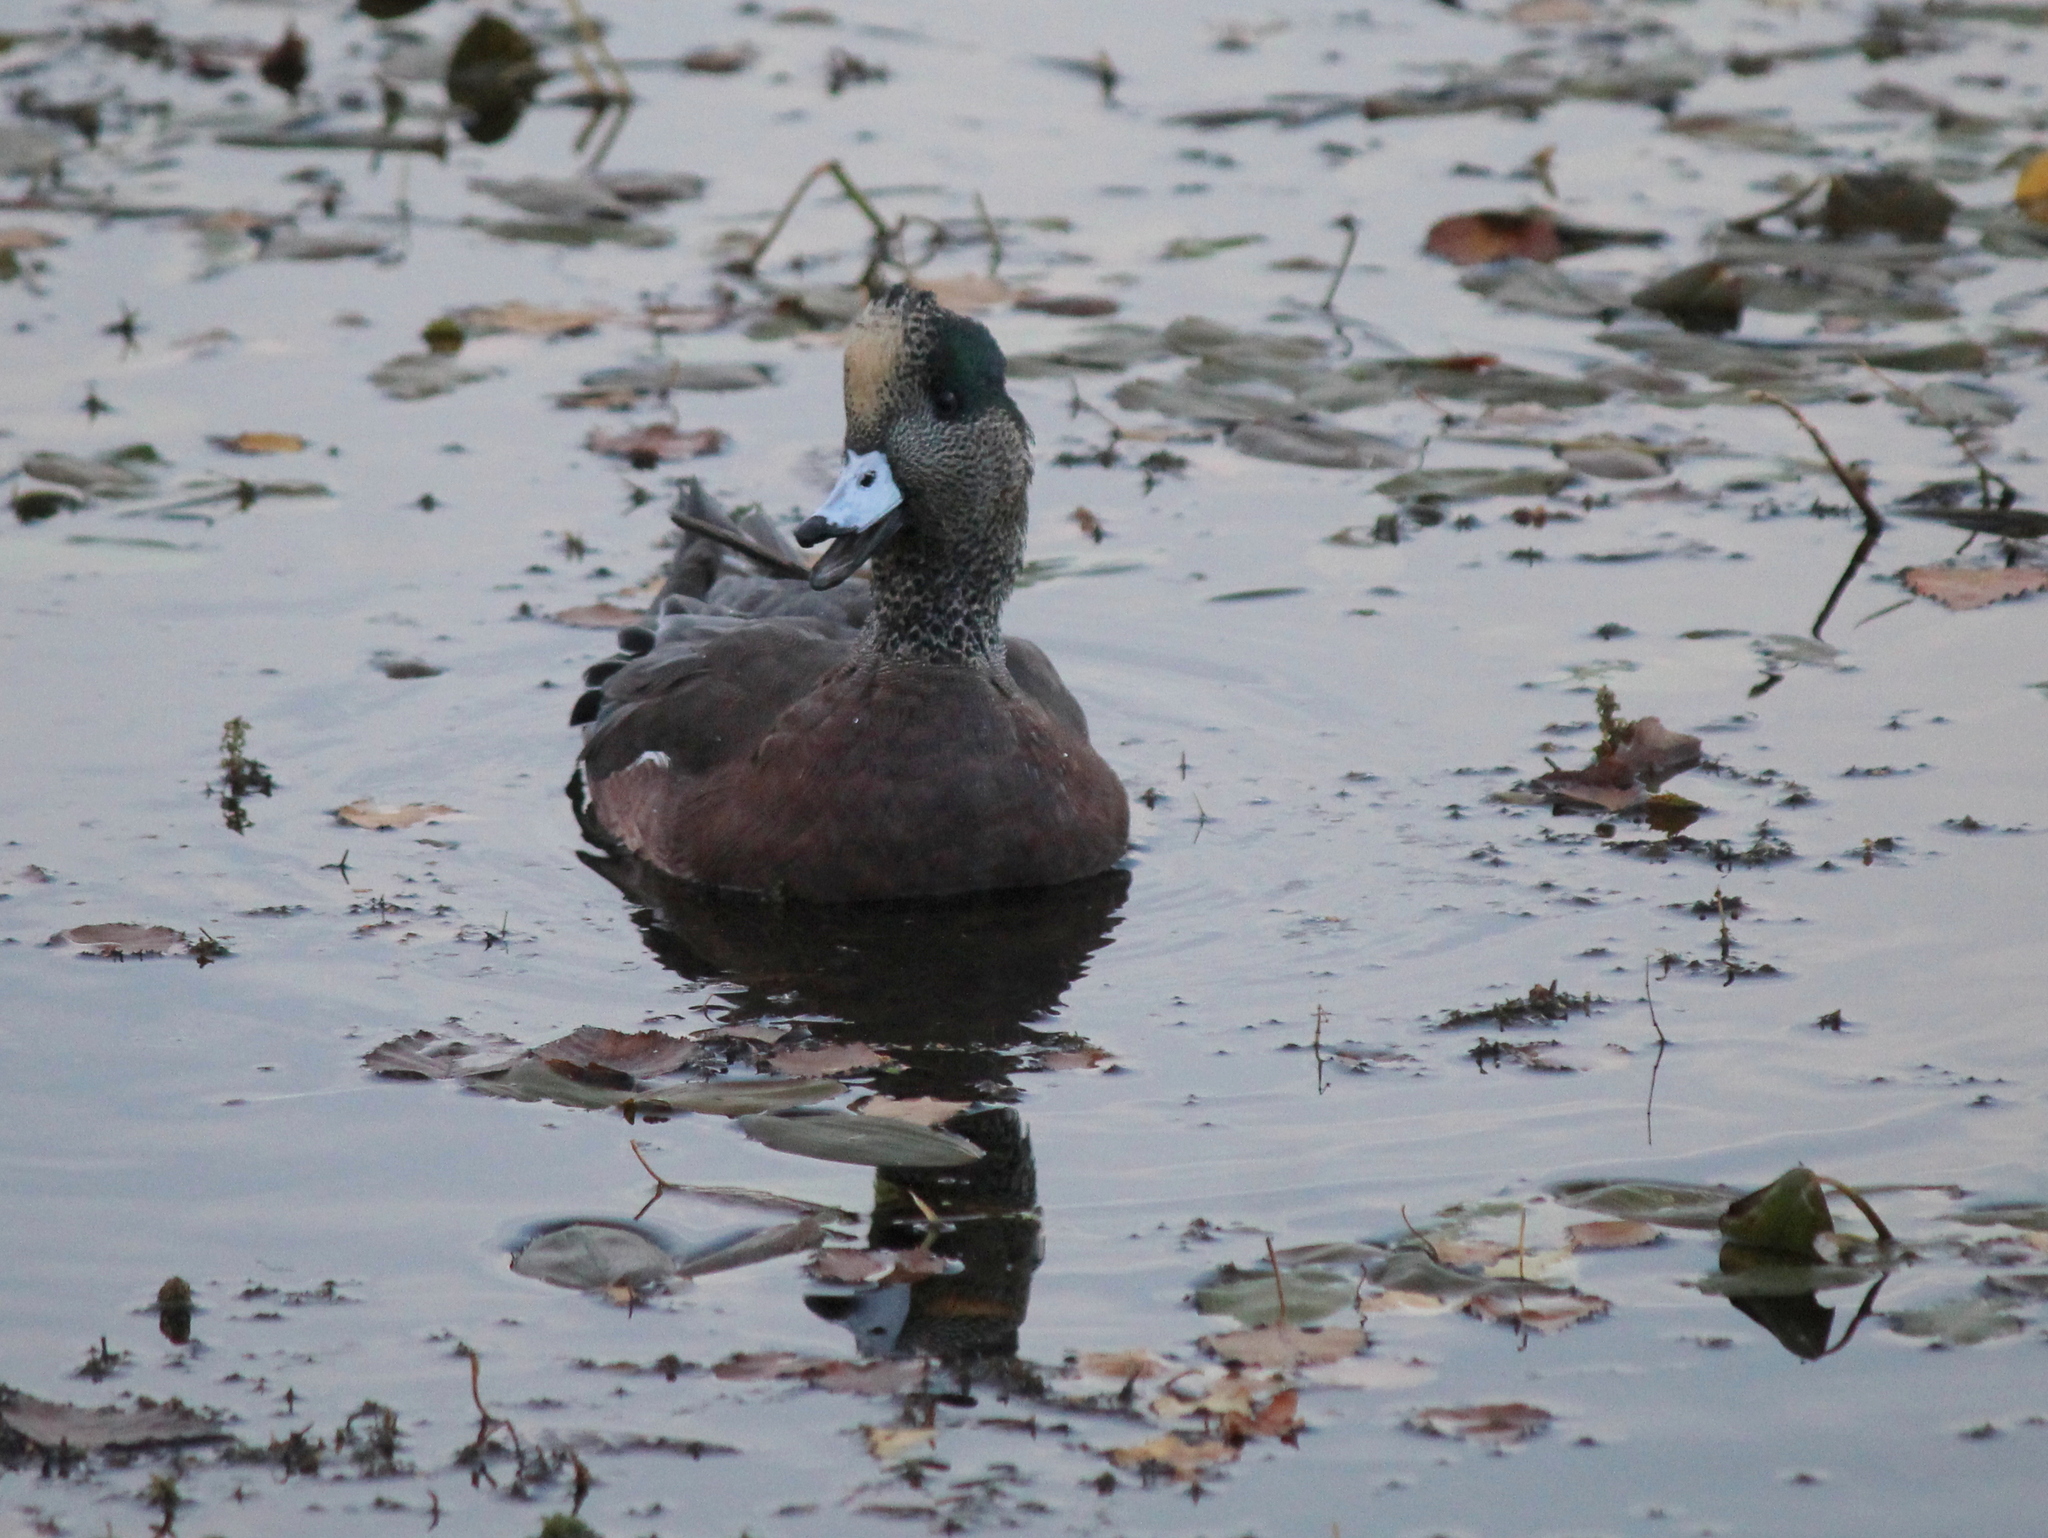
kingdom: Animalia
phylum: Chordata
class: Aves
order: Anseriformes
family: Anatidae
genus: Mareca
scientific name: Mareca americana
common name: American wigeon
